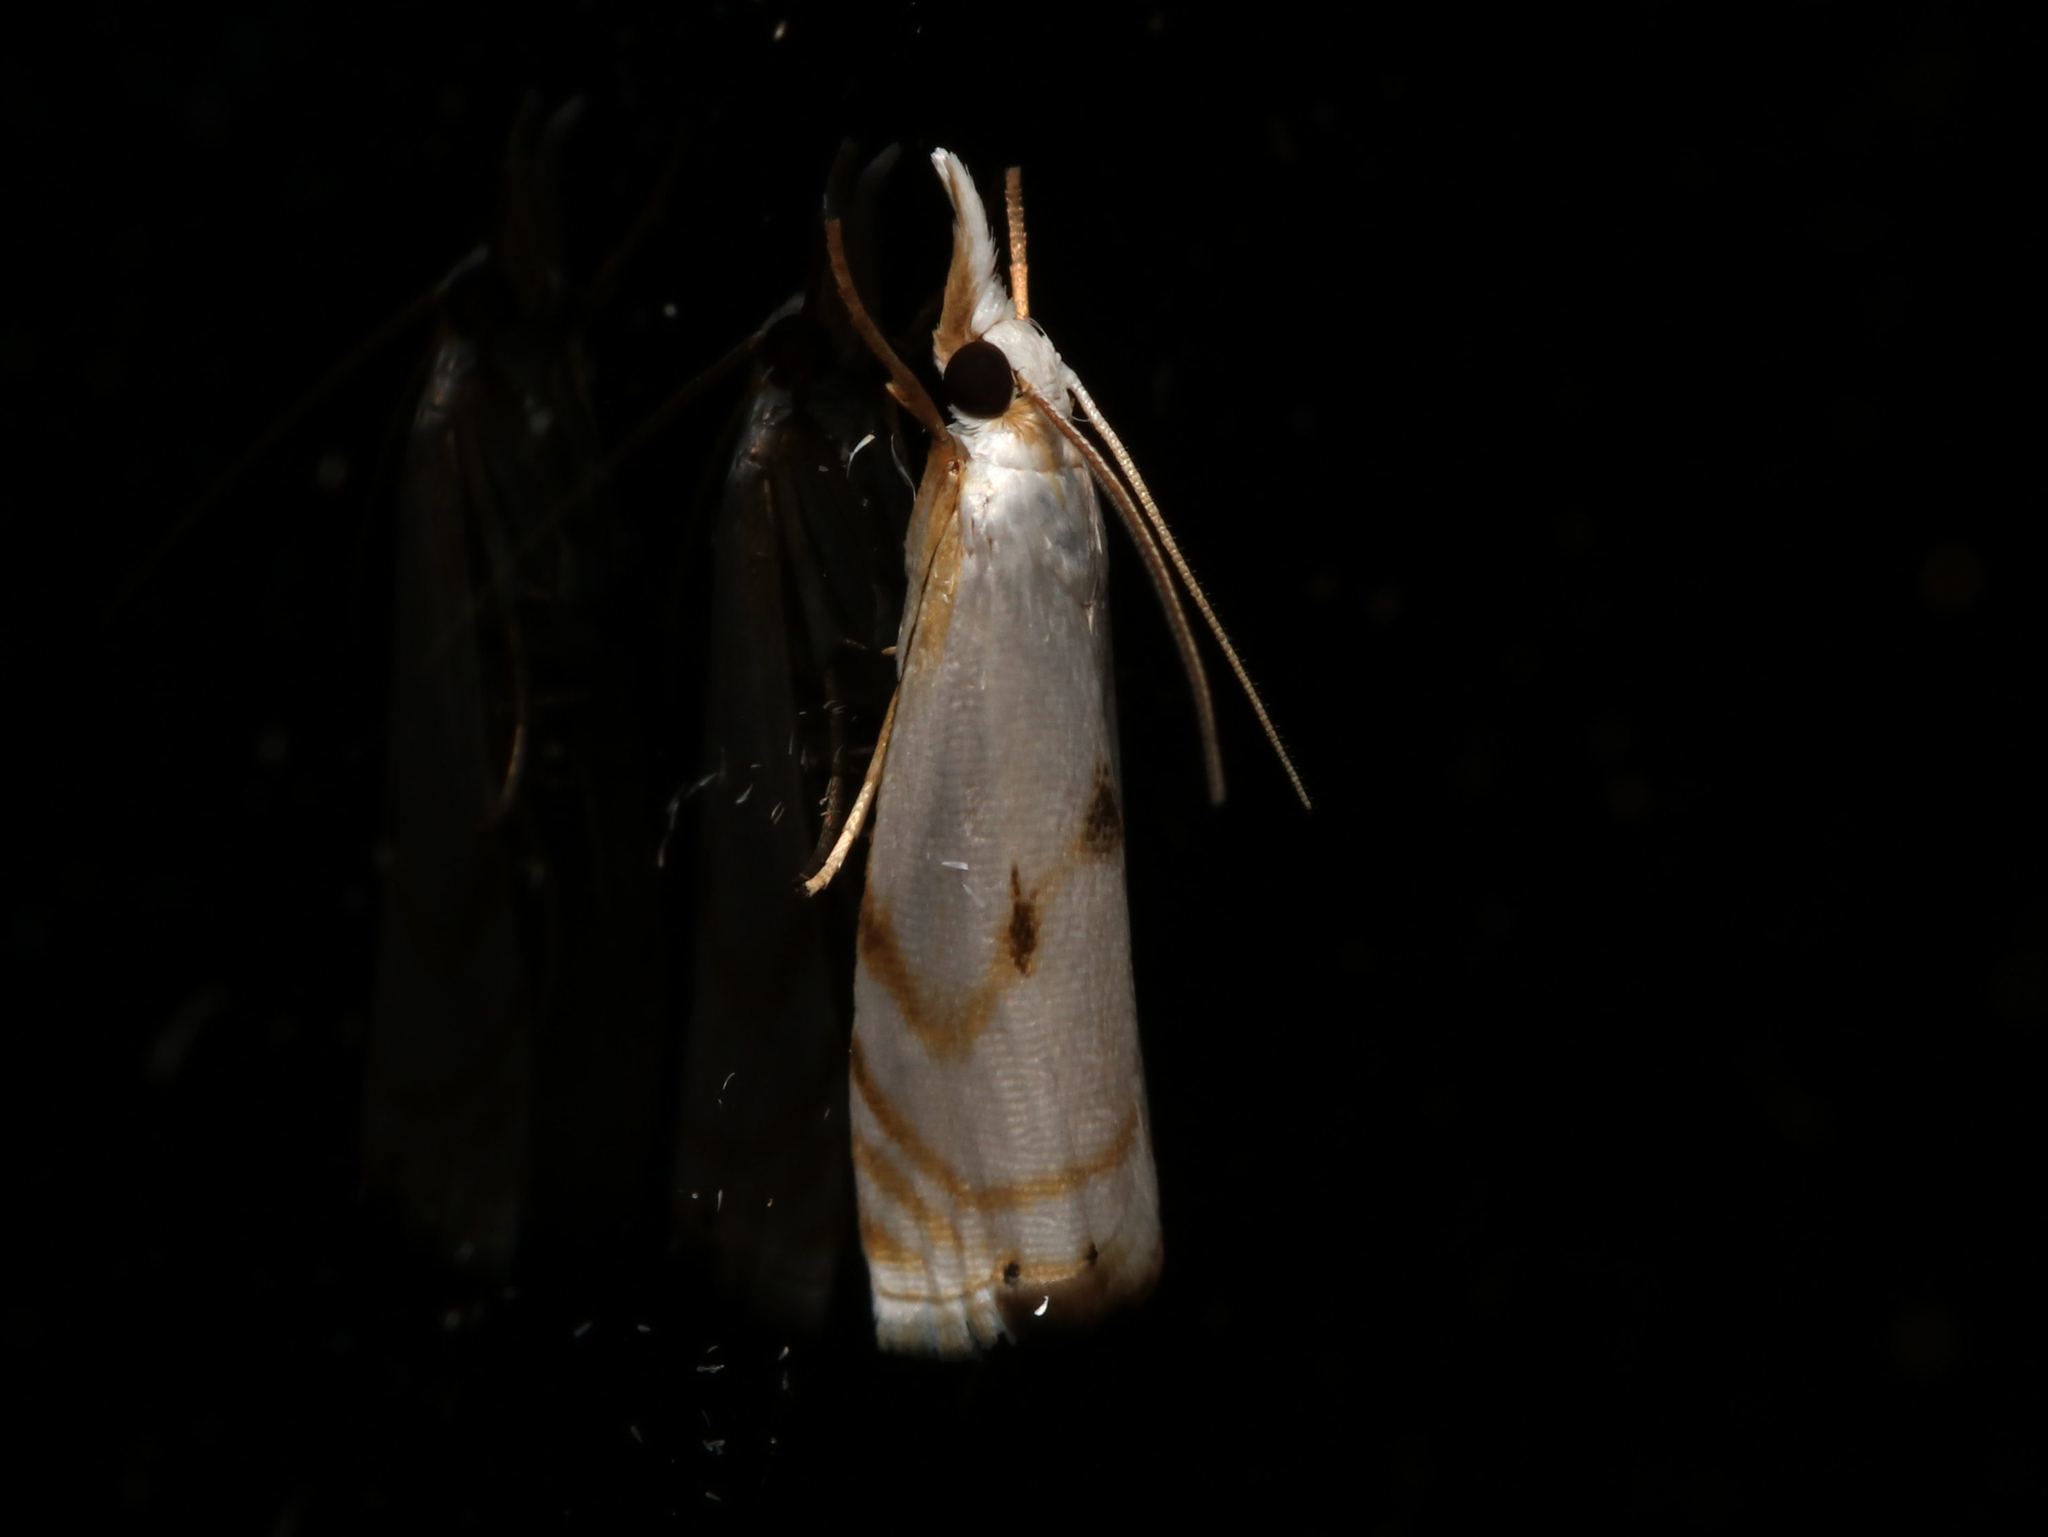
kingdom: Animalia
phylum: Arthropoda
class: Insecta
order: Lepidoptera
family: Crambidae
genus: Microcrambus
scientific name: Microcrambus biguttellus
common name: Gold-stripe grass-veneer moth
